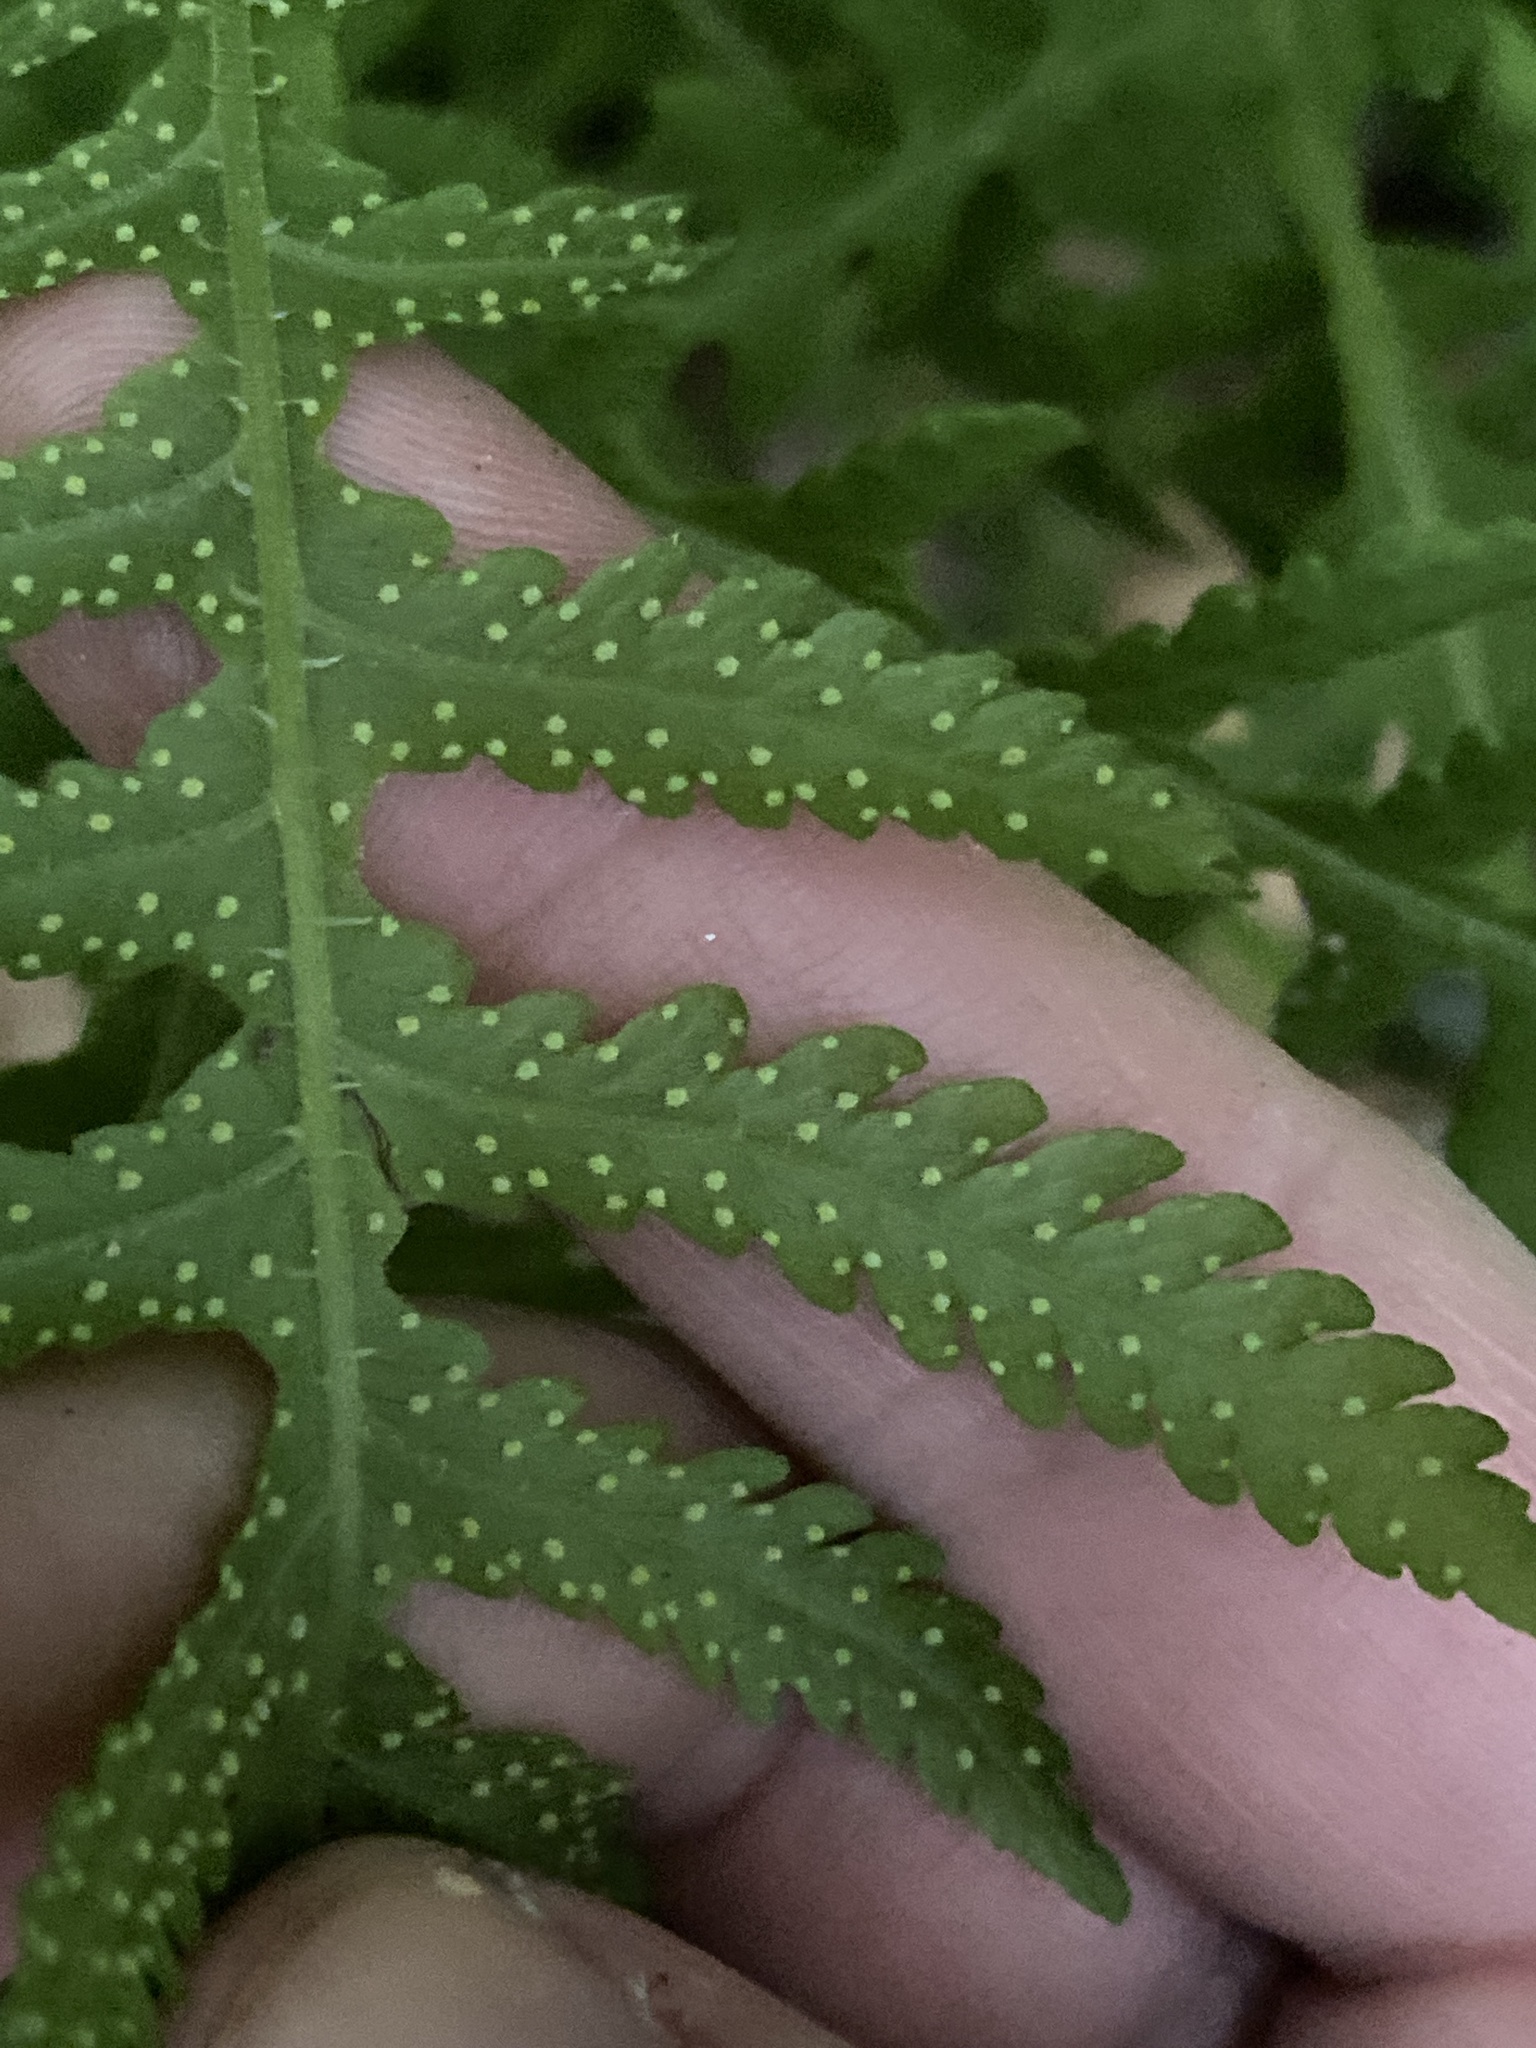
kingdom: Plantae
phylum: Tracheophyta
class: Polypodiopsida
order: Polypodiales
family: Thelypteridaceae
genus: Phegopteris
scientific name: Phegopteris hexagonoptera
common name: Broad beech fern
